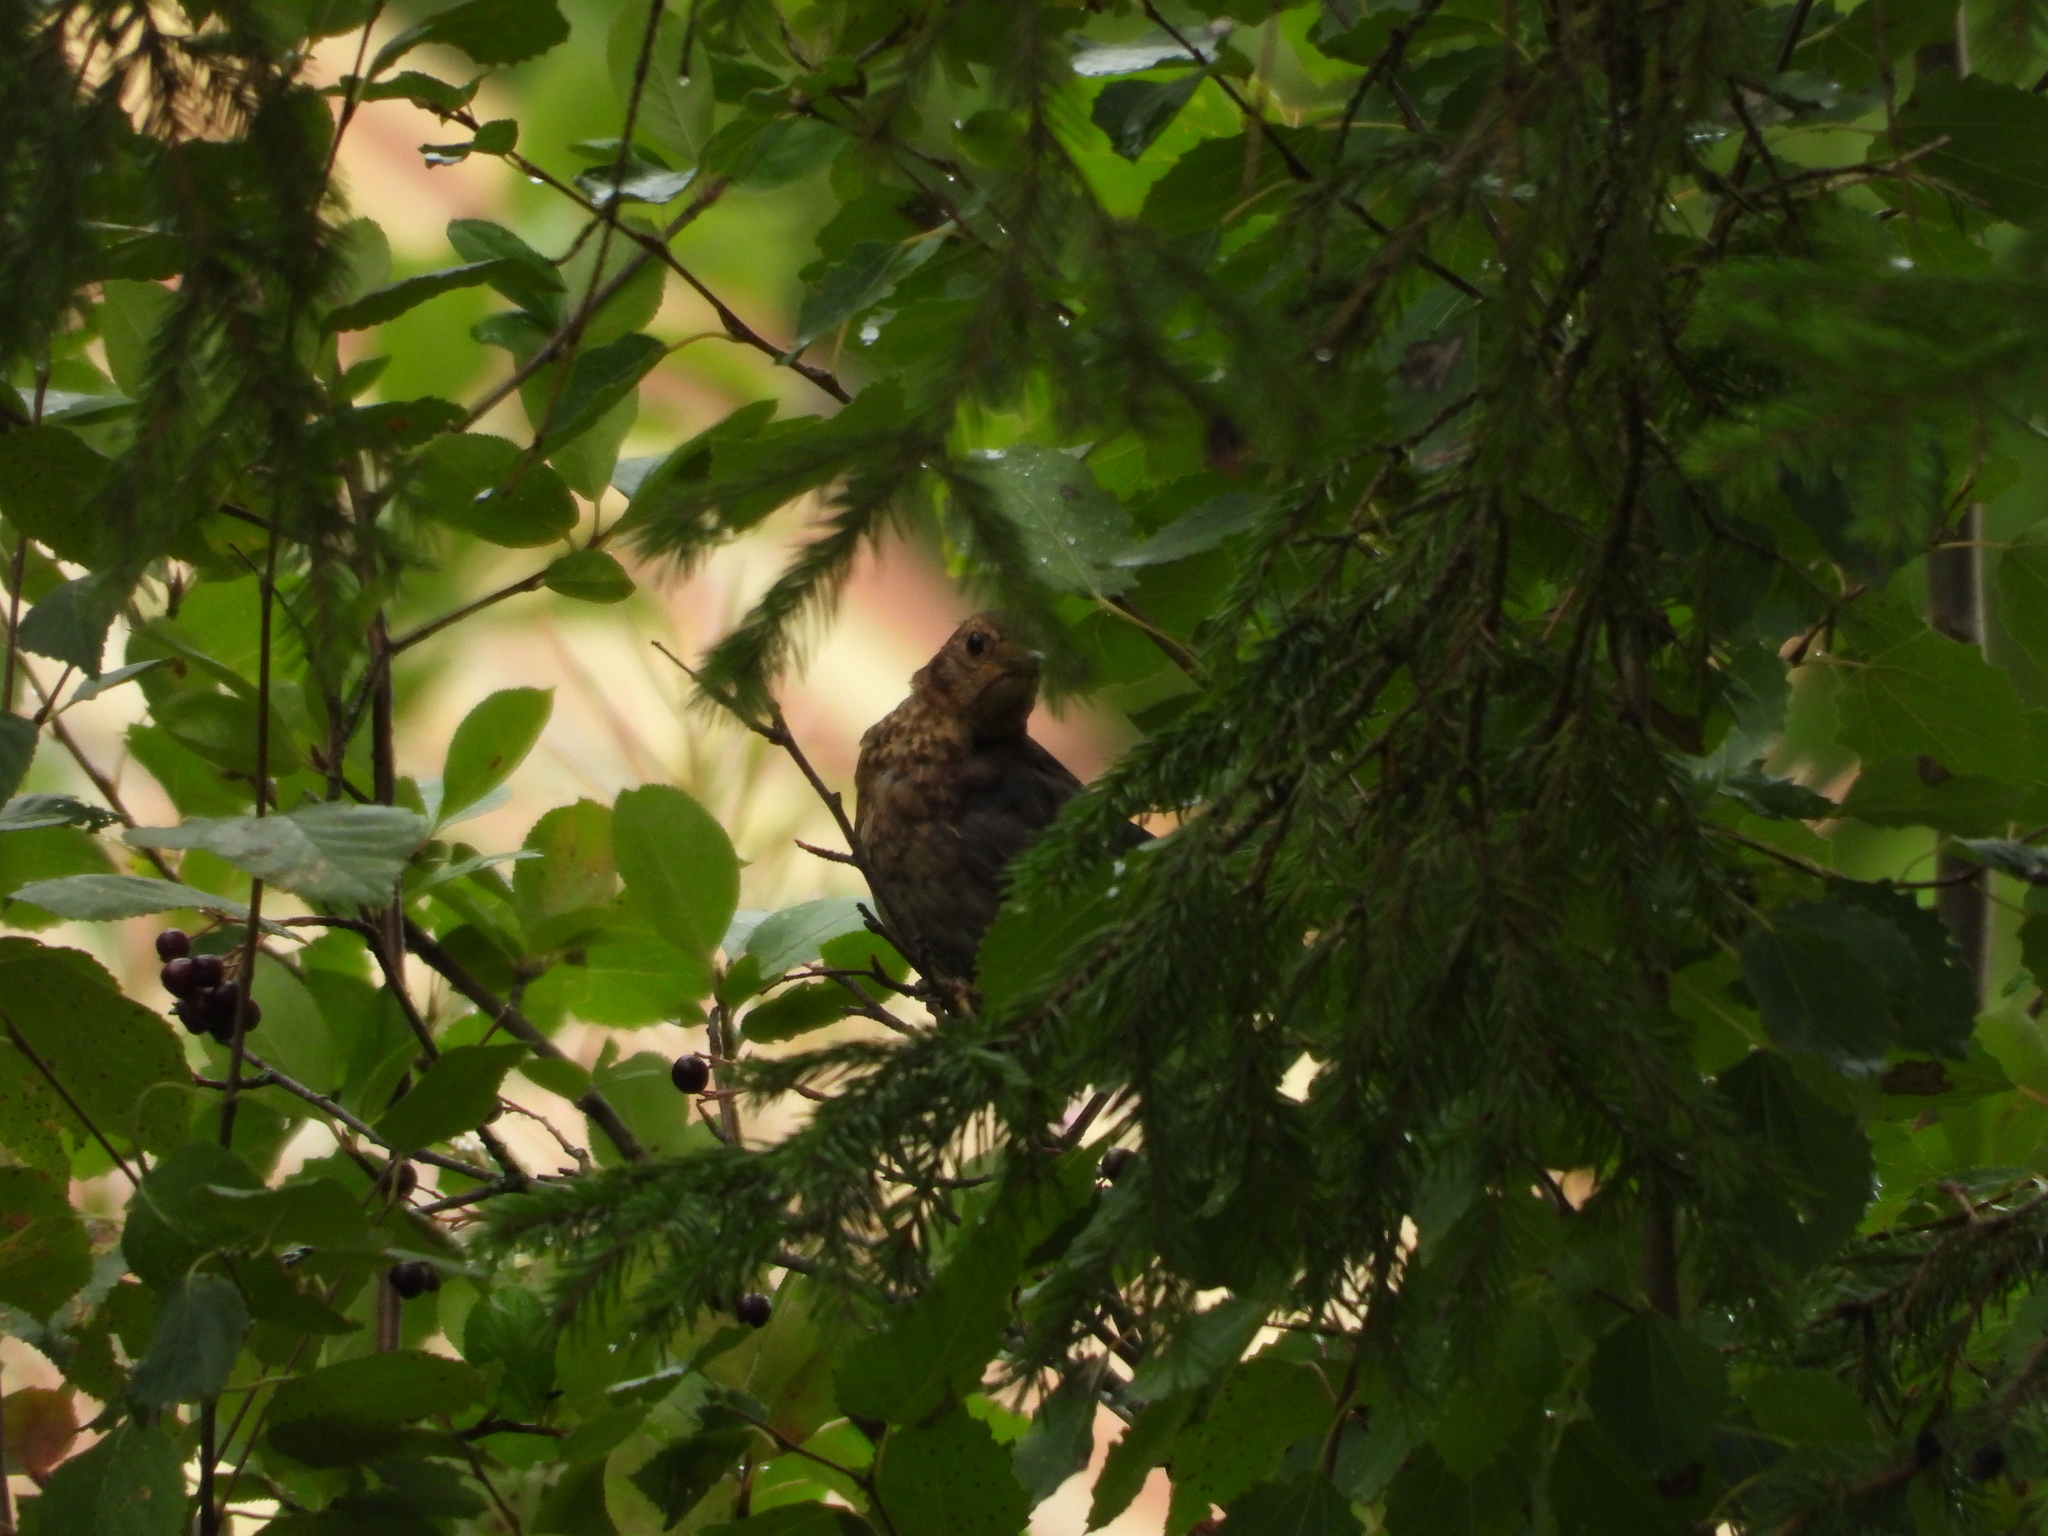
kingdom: Animalia
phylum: Chordata
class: Aves
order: Passeriformes
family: Turdidae
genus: Turdus
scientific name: Turdus merula
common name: Common blackbird
